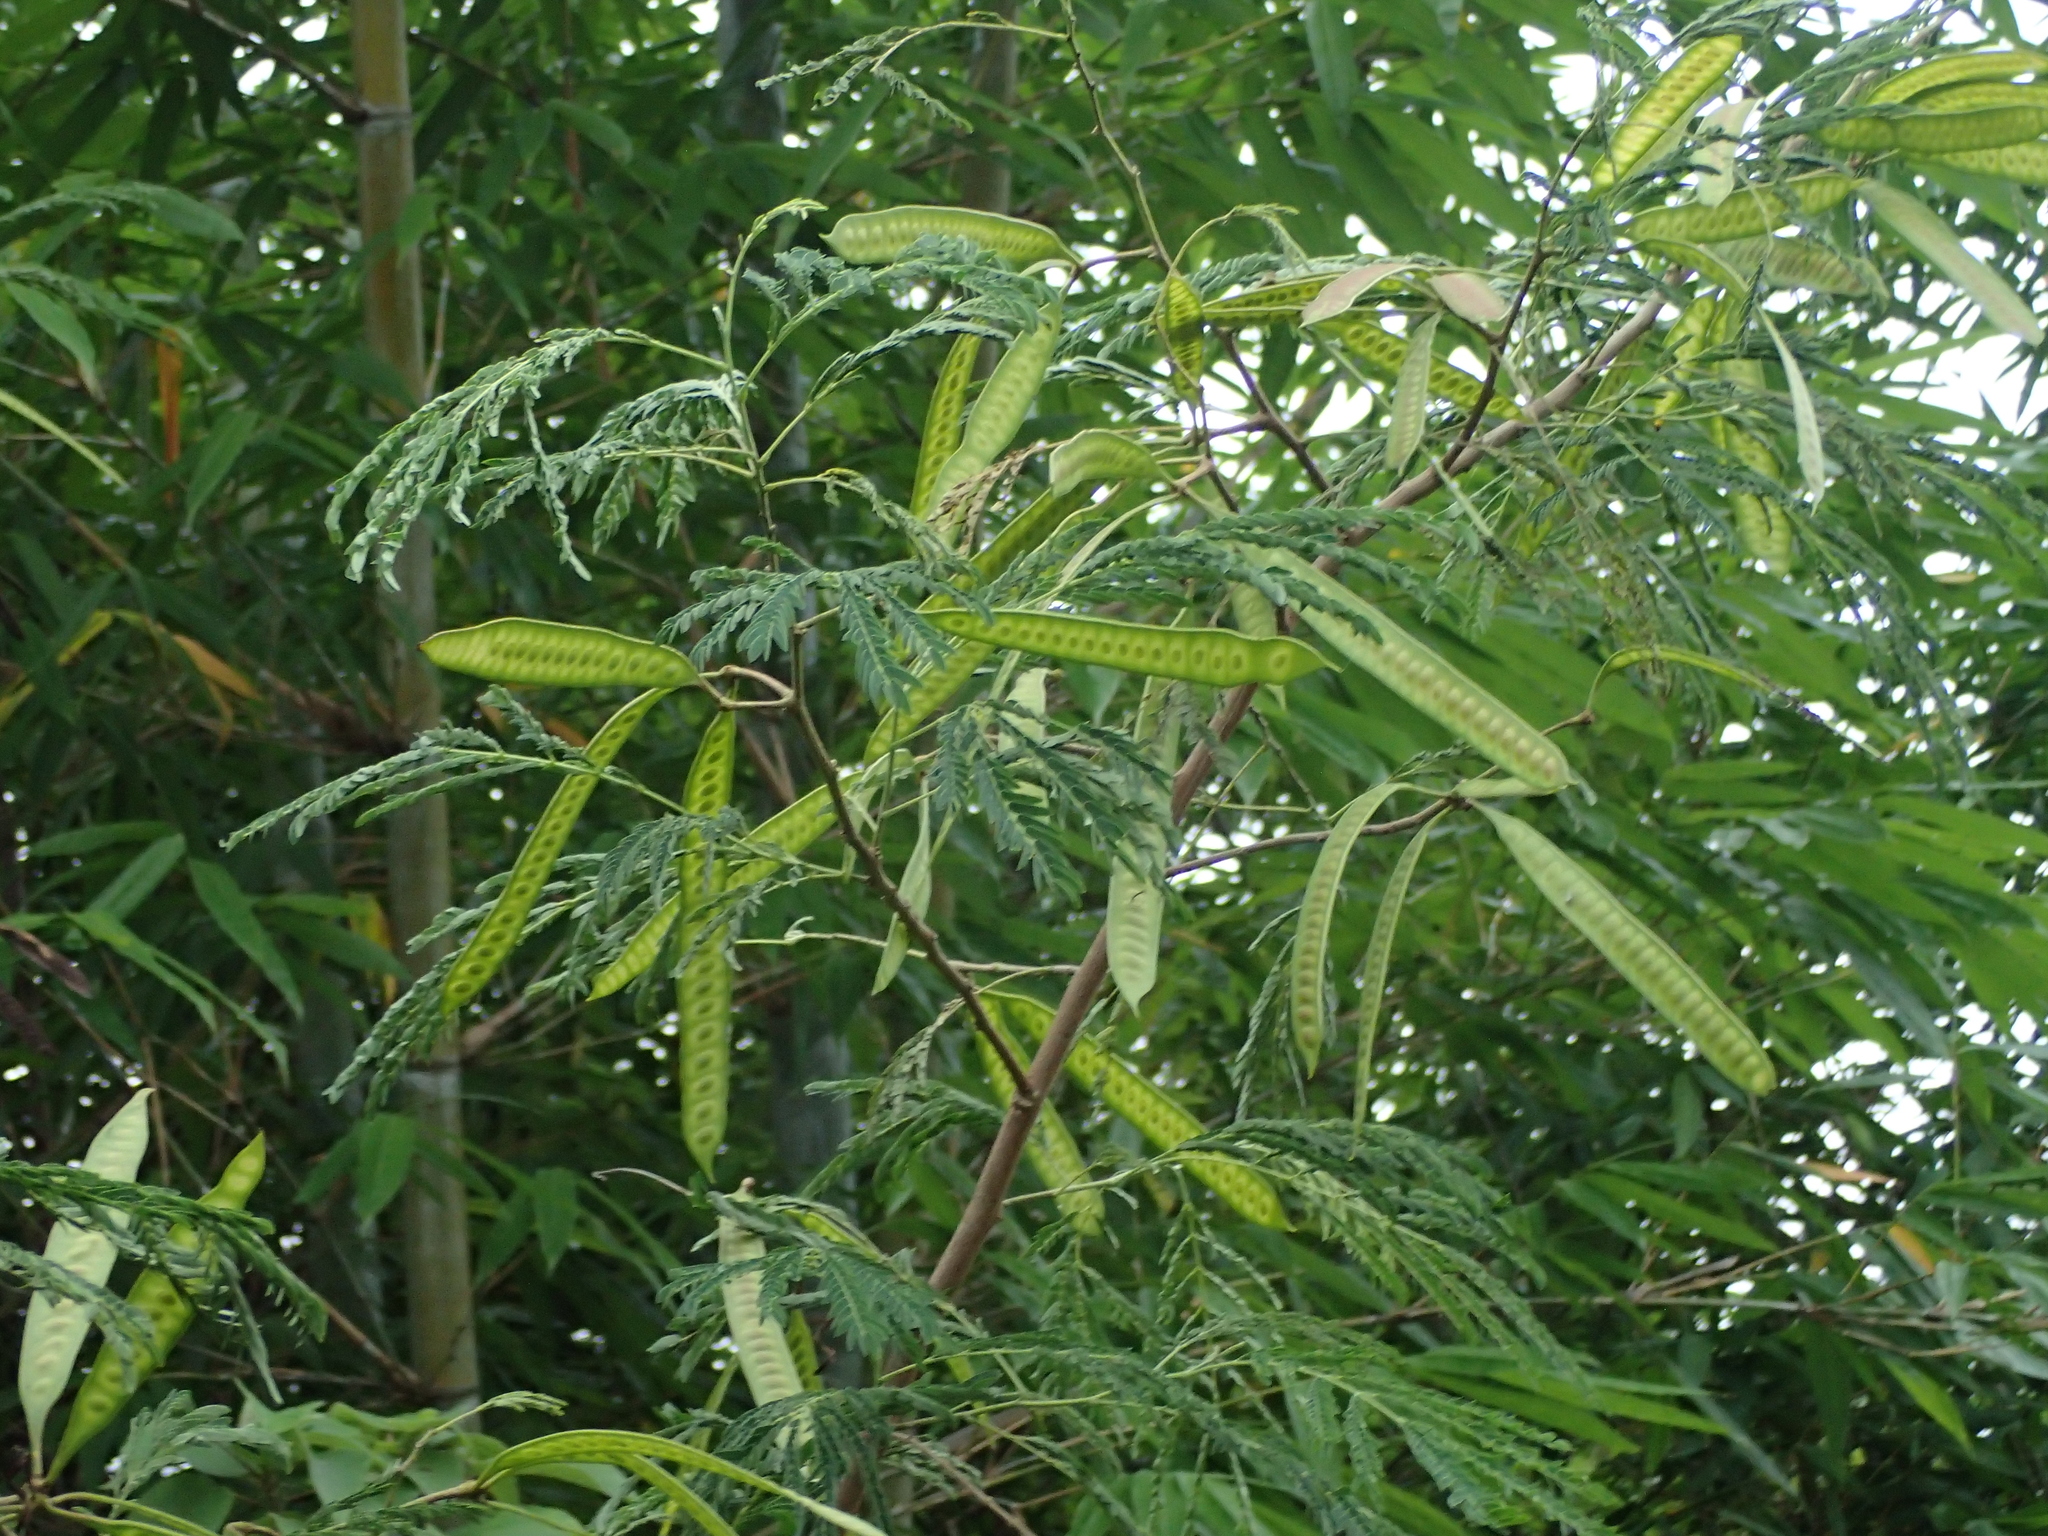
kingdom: Plantae
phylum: Tracheophyta
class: Magnoliopsida
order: Fabales
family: Fabaceae
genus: Leucaena
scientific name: Leucaena leucocephala
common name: White leadtree
